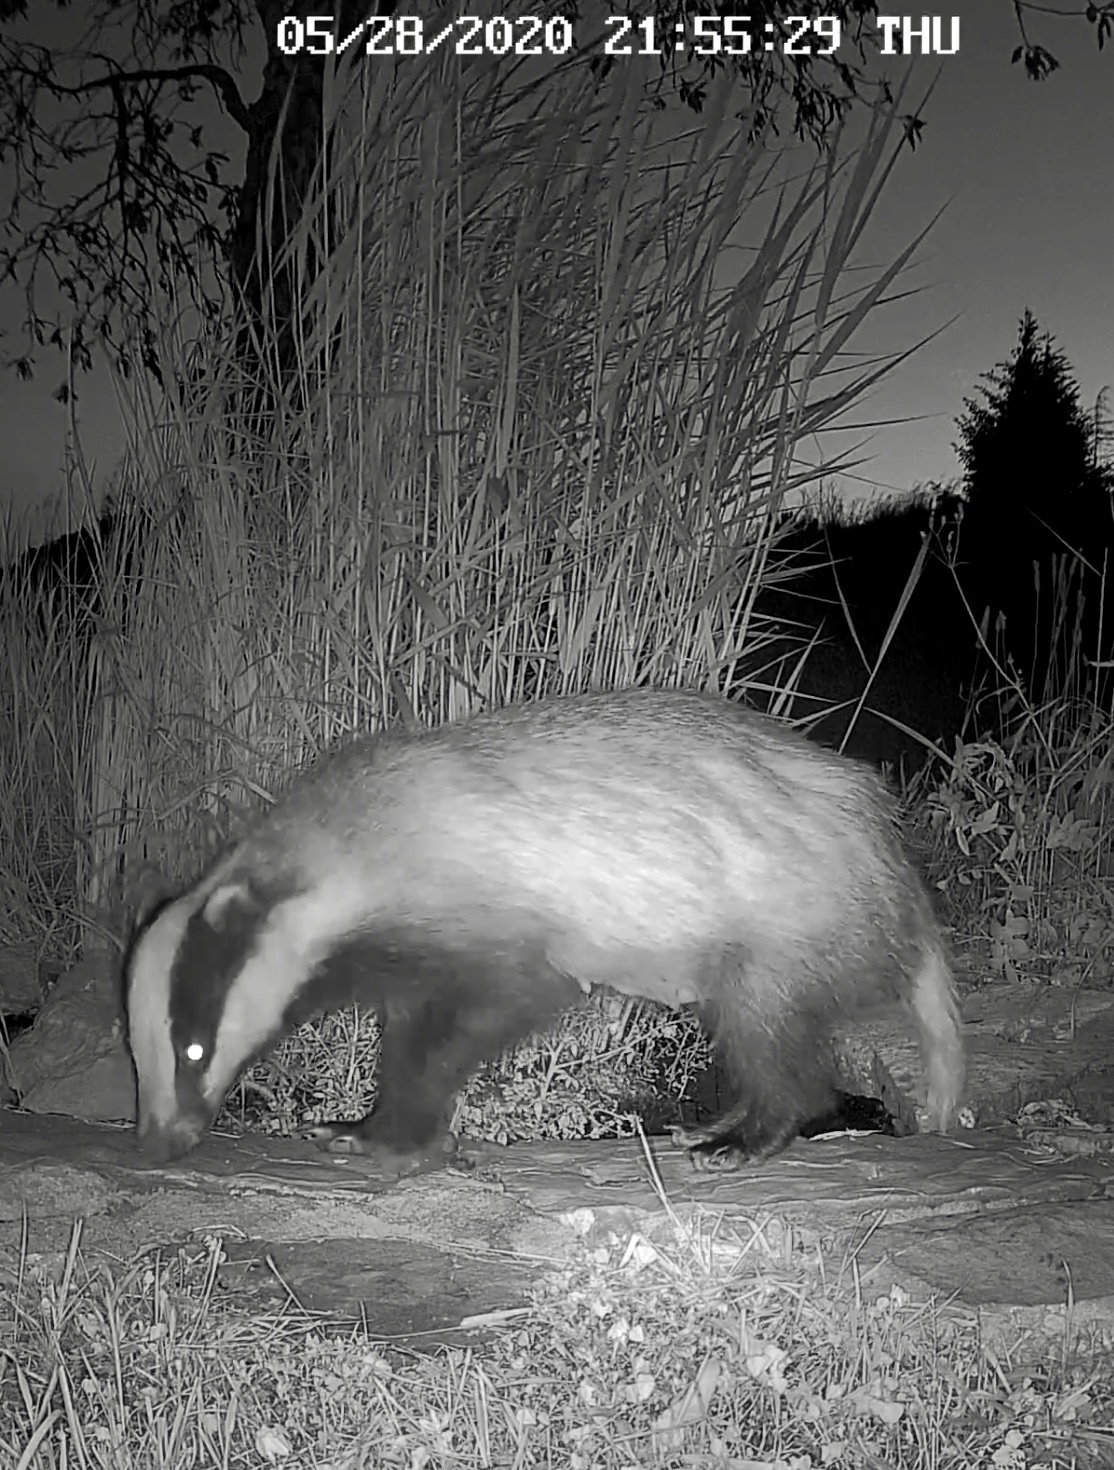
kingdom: Animalia
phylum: Chordata
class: Mammalia
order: Carnivora
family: Mustelidae
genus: Meles
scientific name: Meles meles
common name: Eurasian badger
